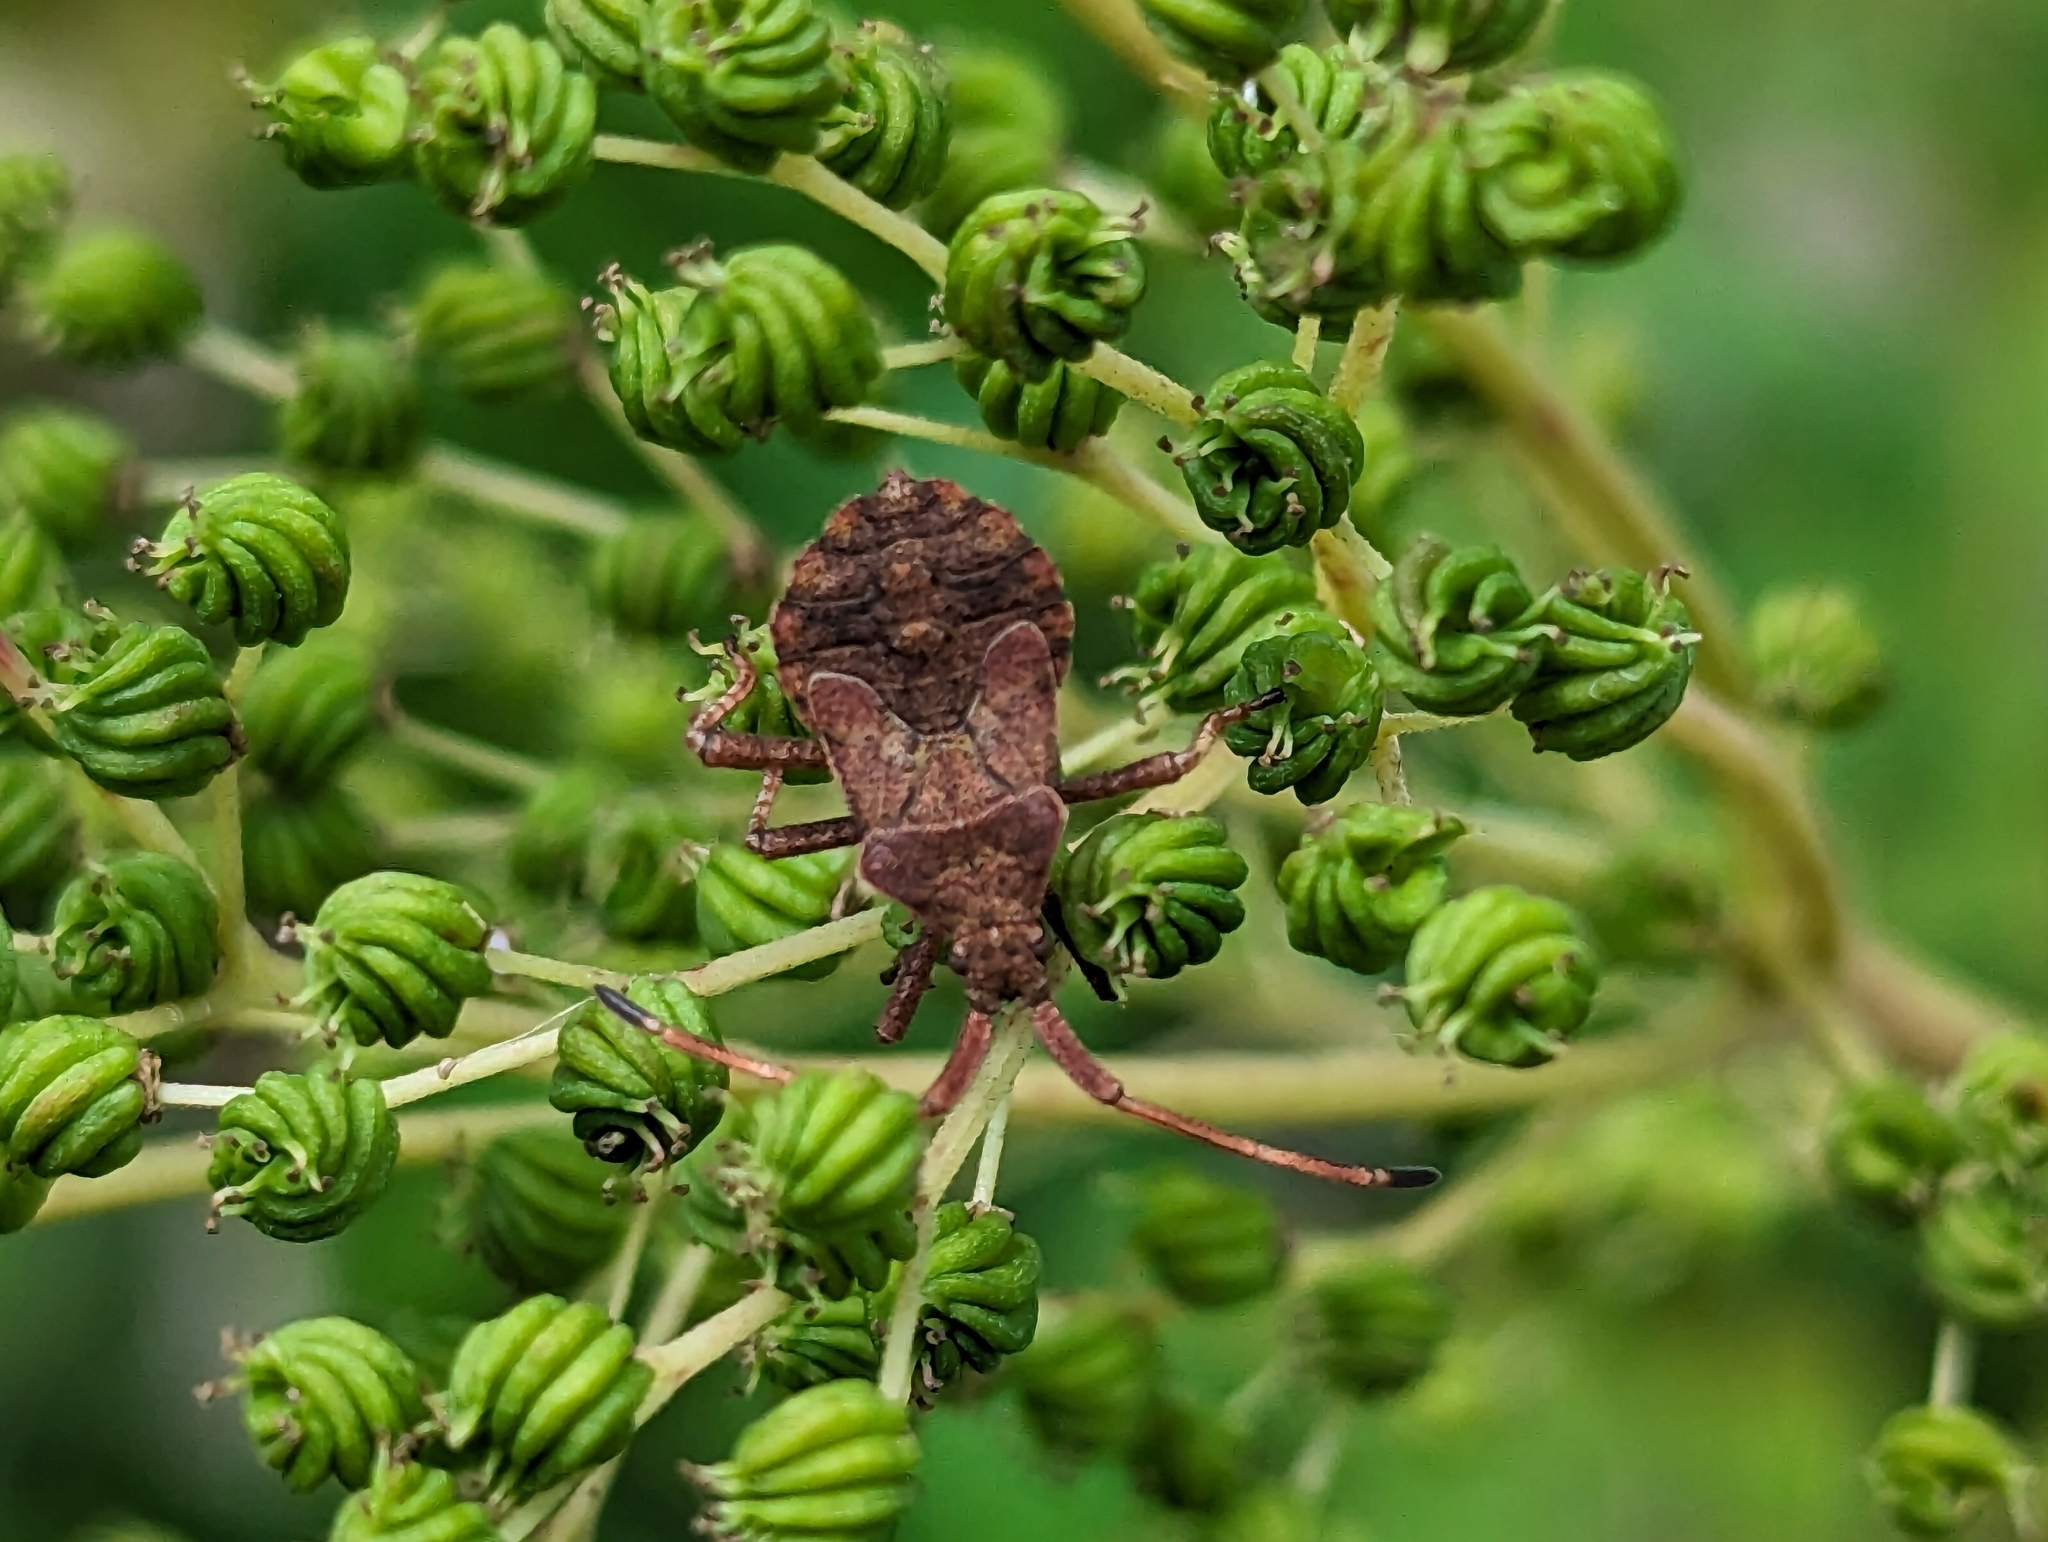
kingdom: Animalia
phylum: Arthropoda
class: Insecta
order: Hemiptera
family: Coreidae
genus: Coreus
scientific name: Coreus marginatus
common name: Dock bug
